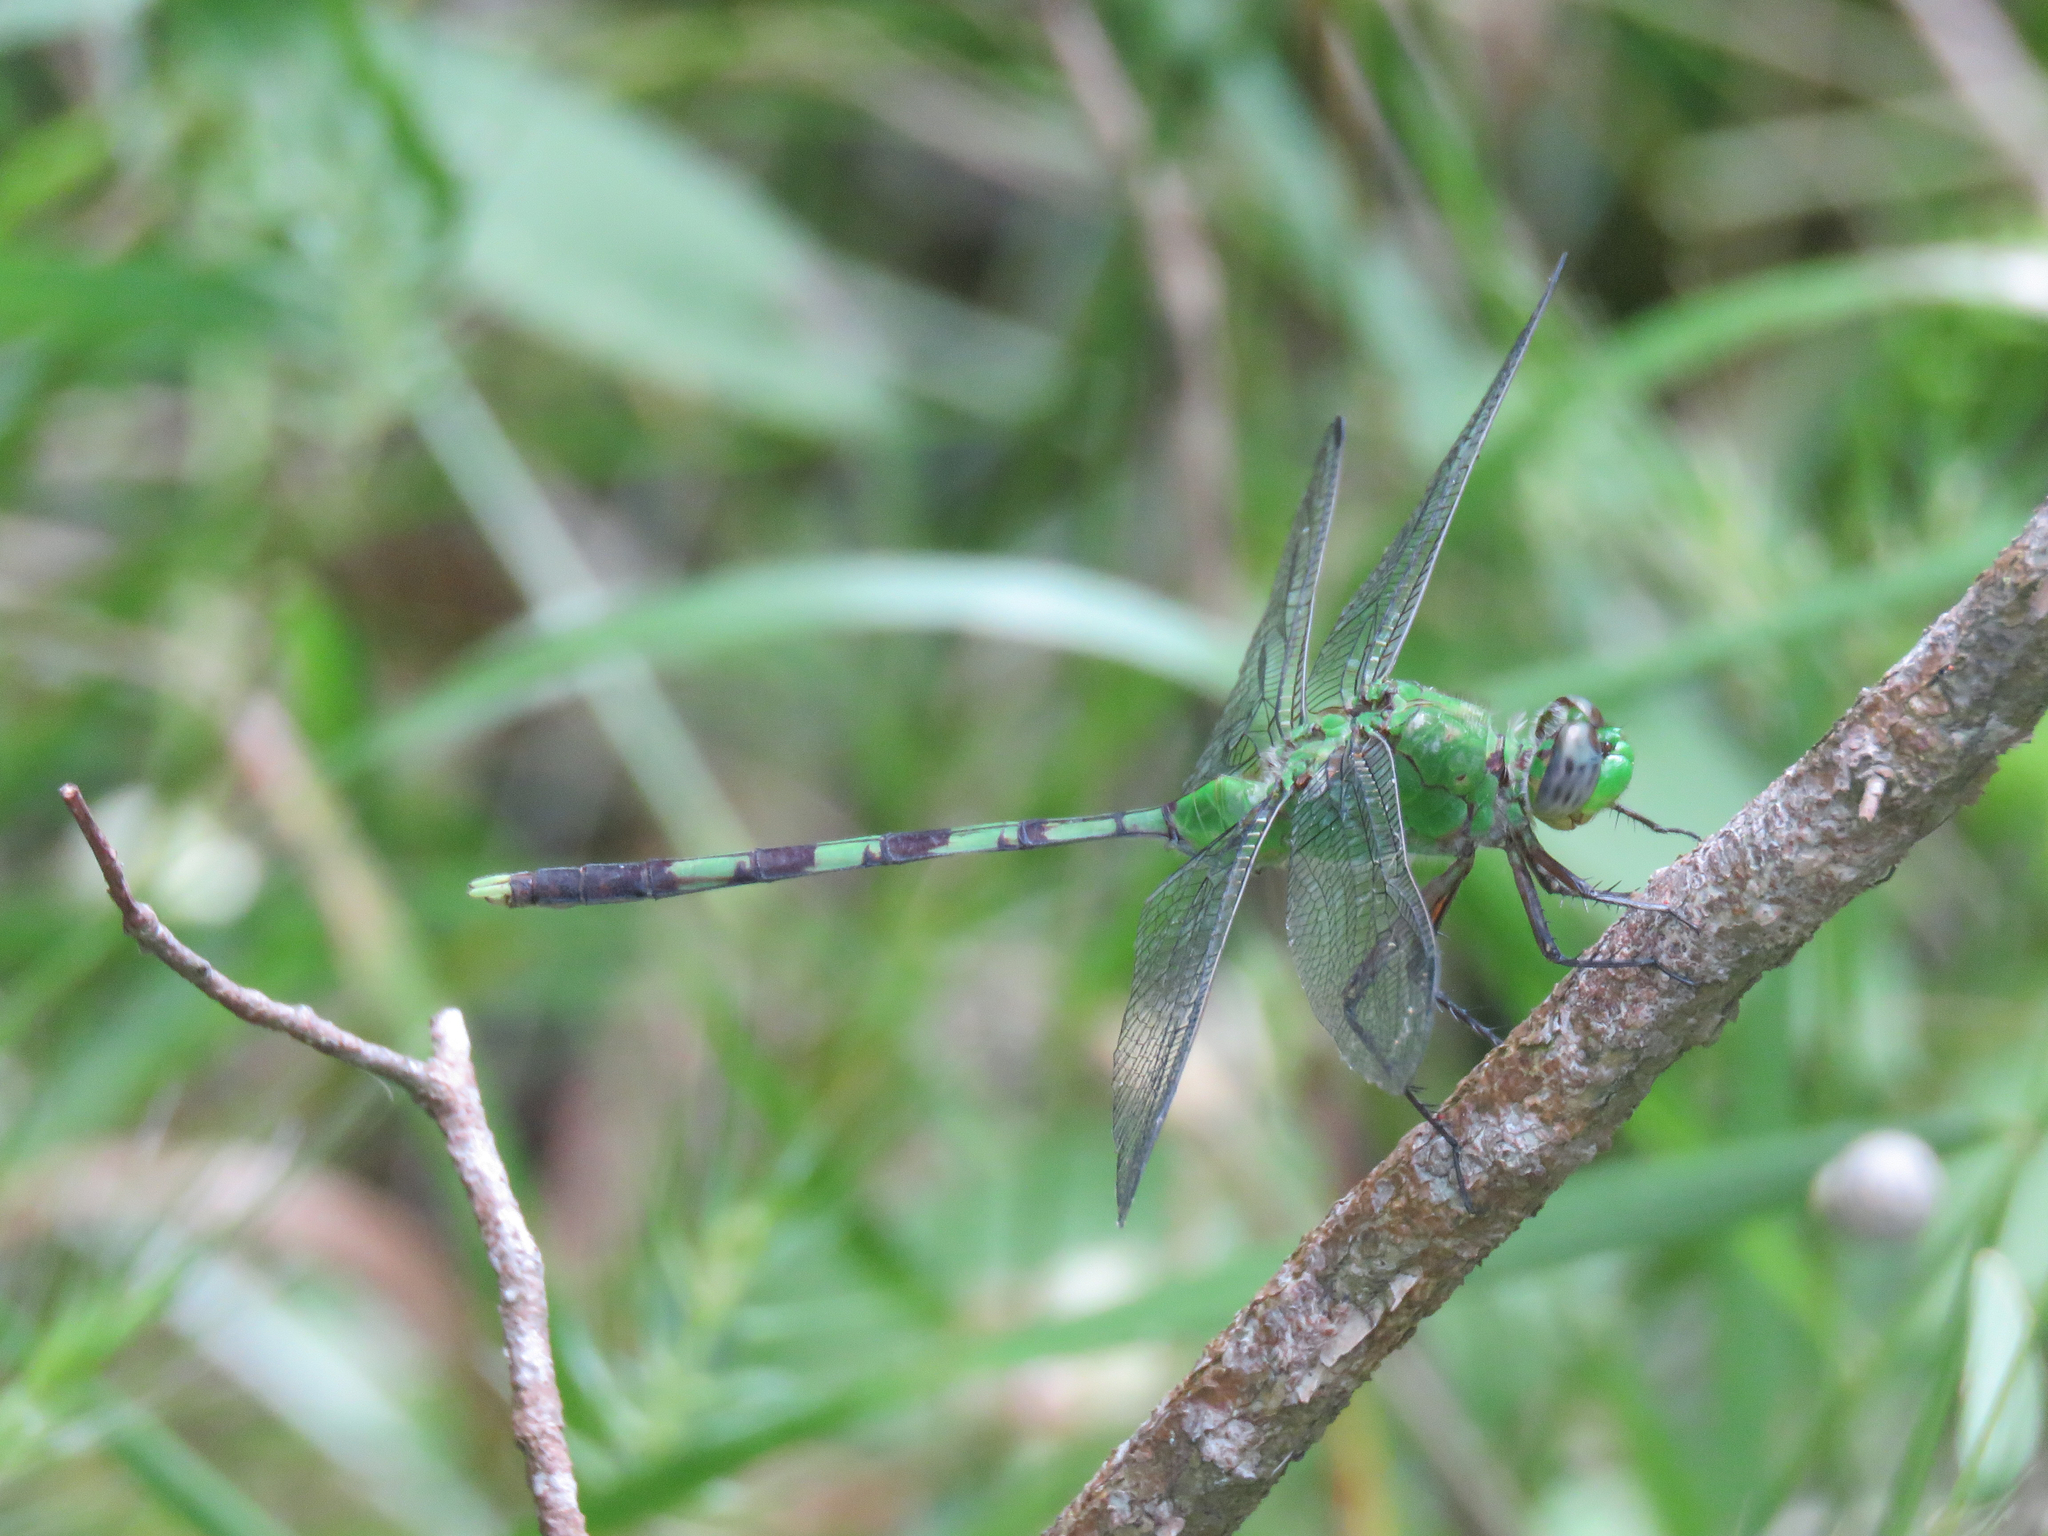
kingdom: Animalia
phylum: Arthropoda
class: Insecta
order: Odonata
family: Libellulidae
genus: Erythemis
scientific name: Erythemis vesiculosa
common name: Great pondhawk
